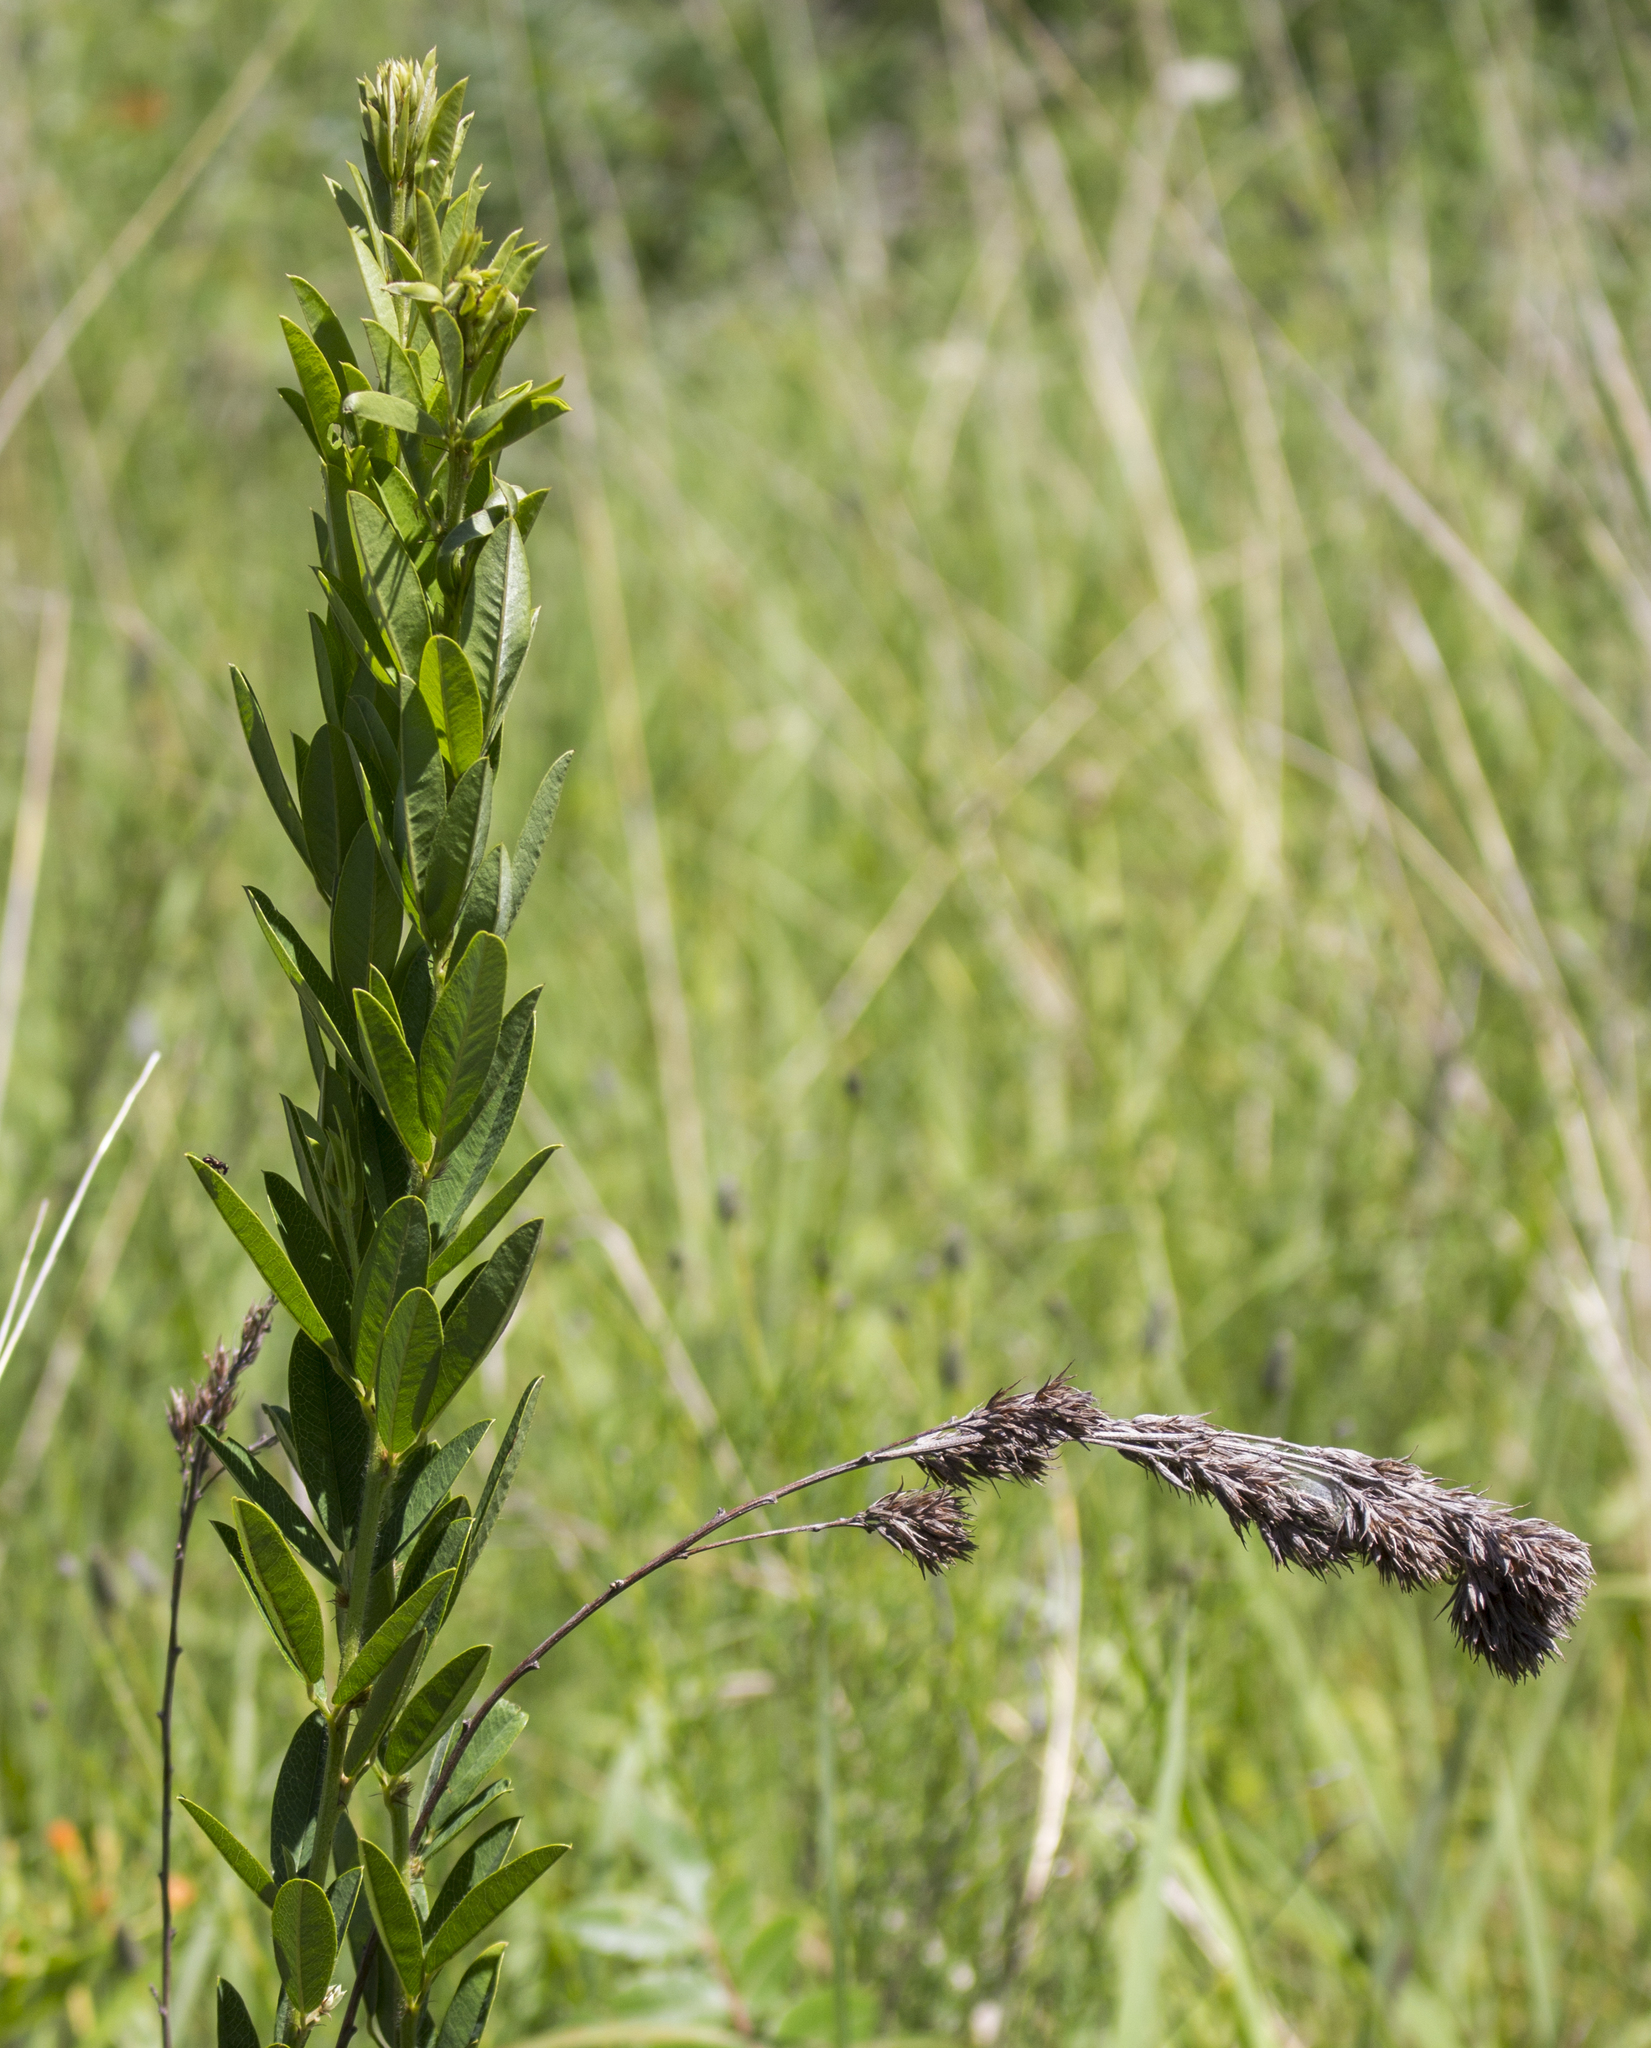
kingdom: Plantae
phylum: Tracheophyta
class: Magnoliopsida
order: Fabales
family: Fabaceae
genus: Lespedeza
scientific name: Lespedeza capitata
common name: Dusty clover
